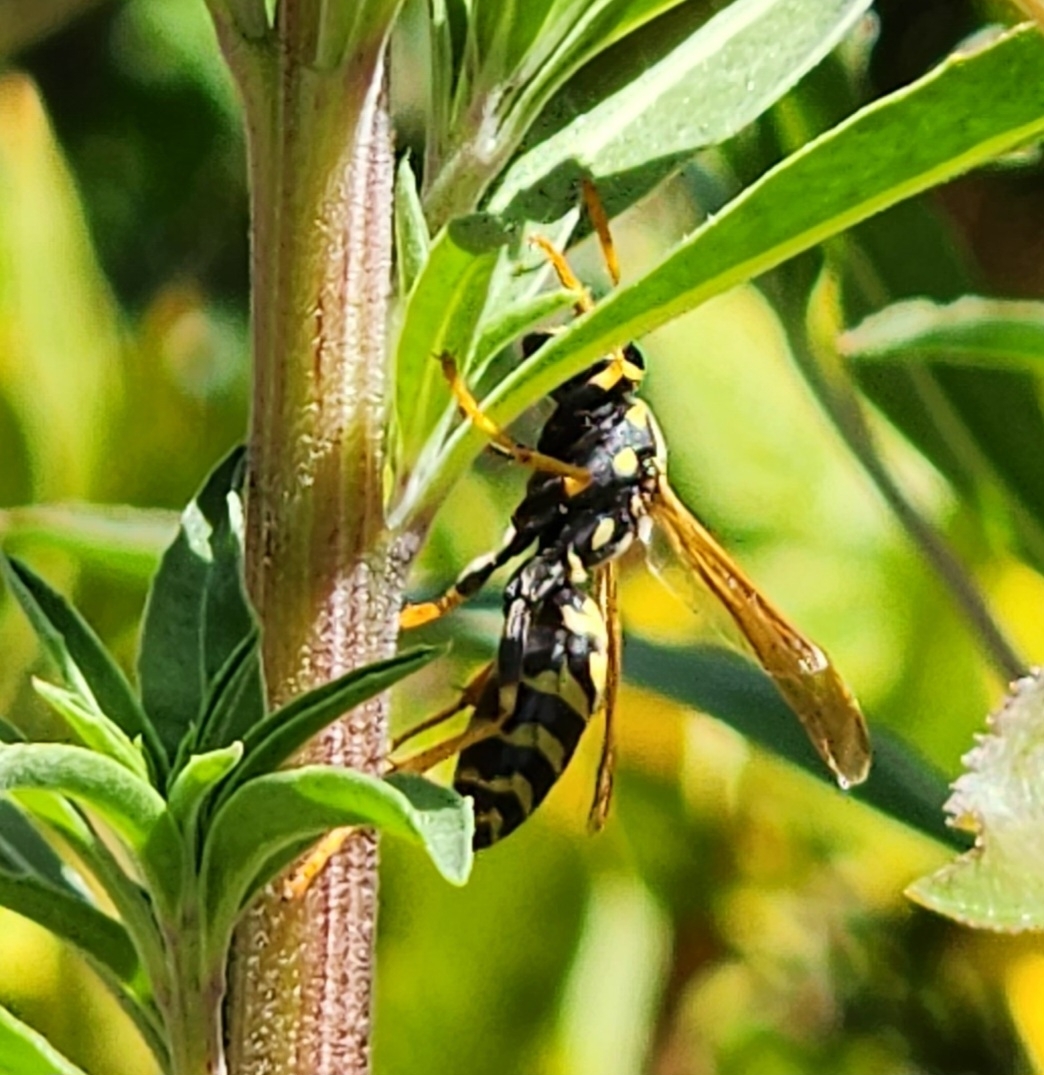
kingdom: Animalia
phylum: Arthropoda
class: Insecta
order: Hymenoptera
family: Eumenidae
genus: Polistes
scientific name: Polistes dominula
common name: Paper wasp
